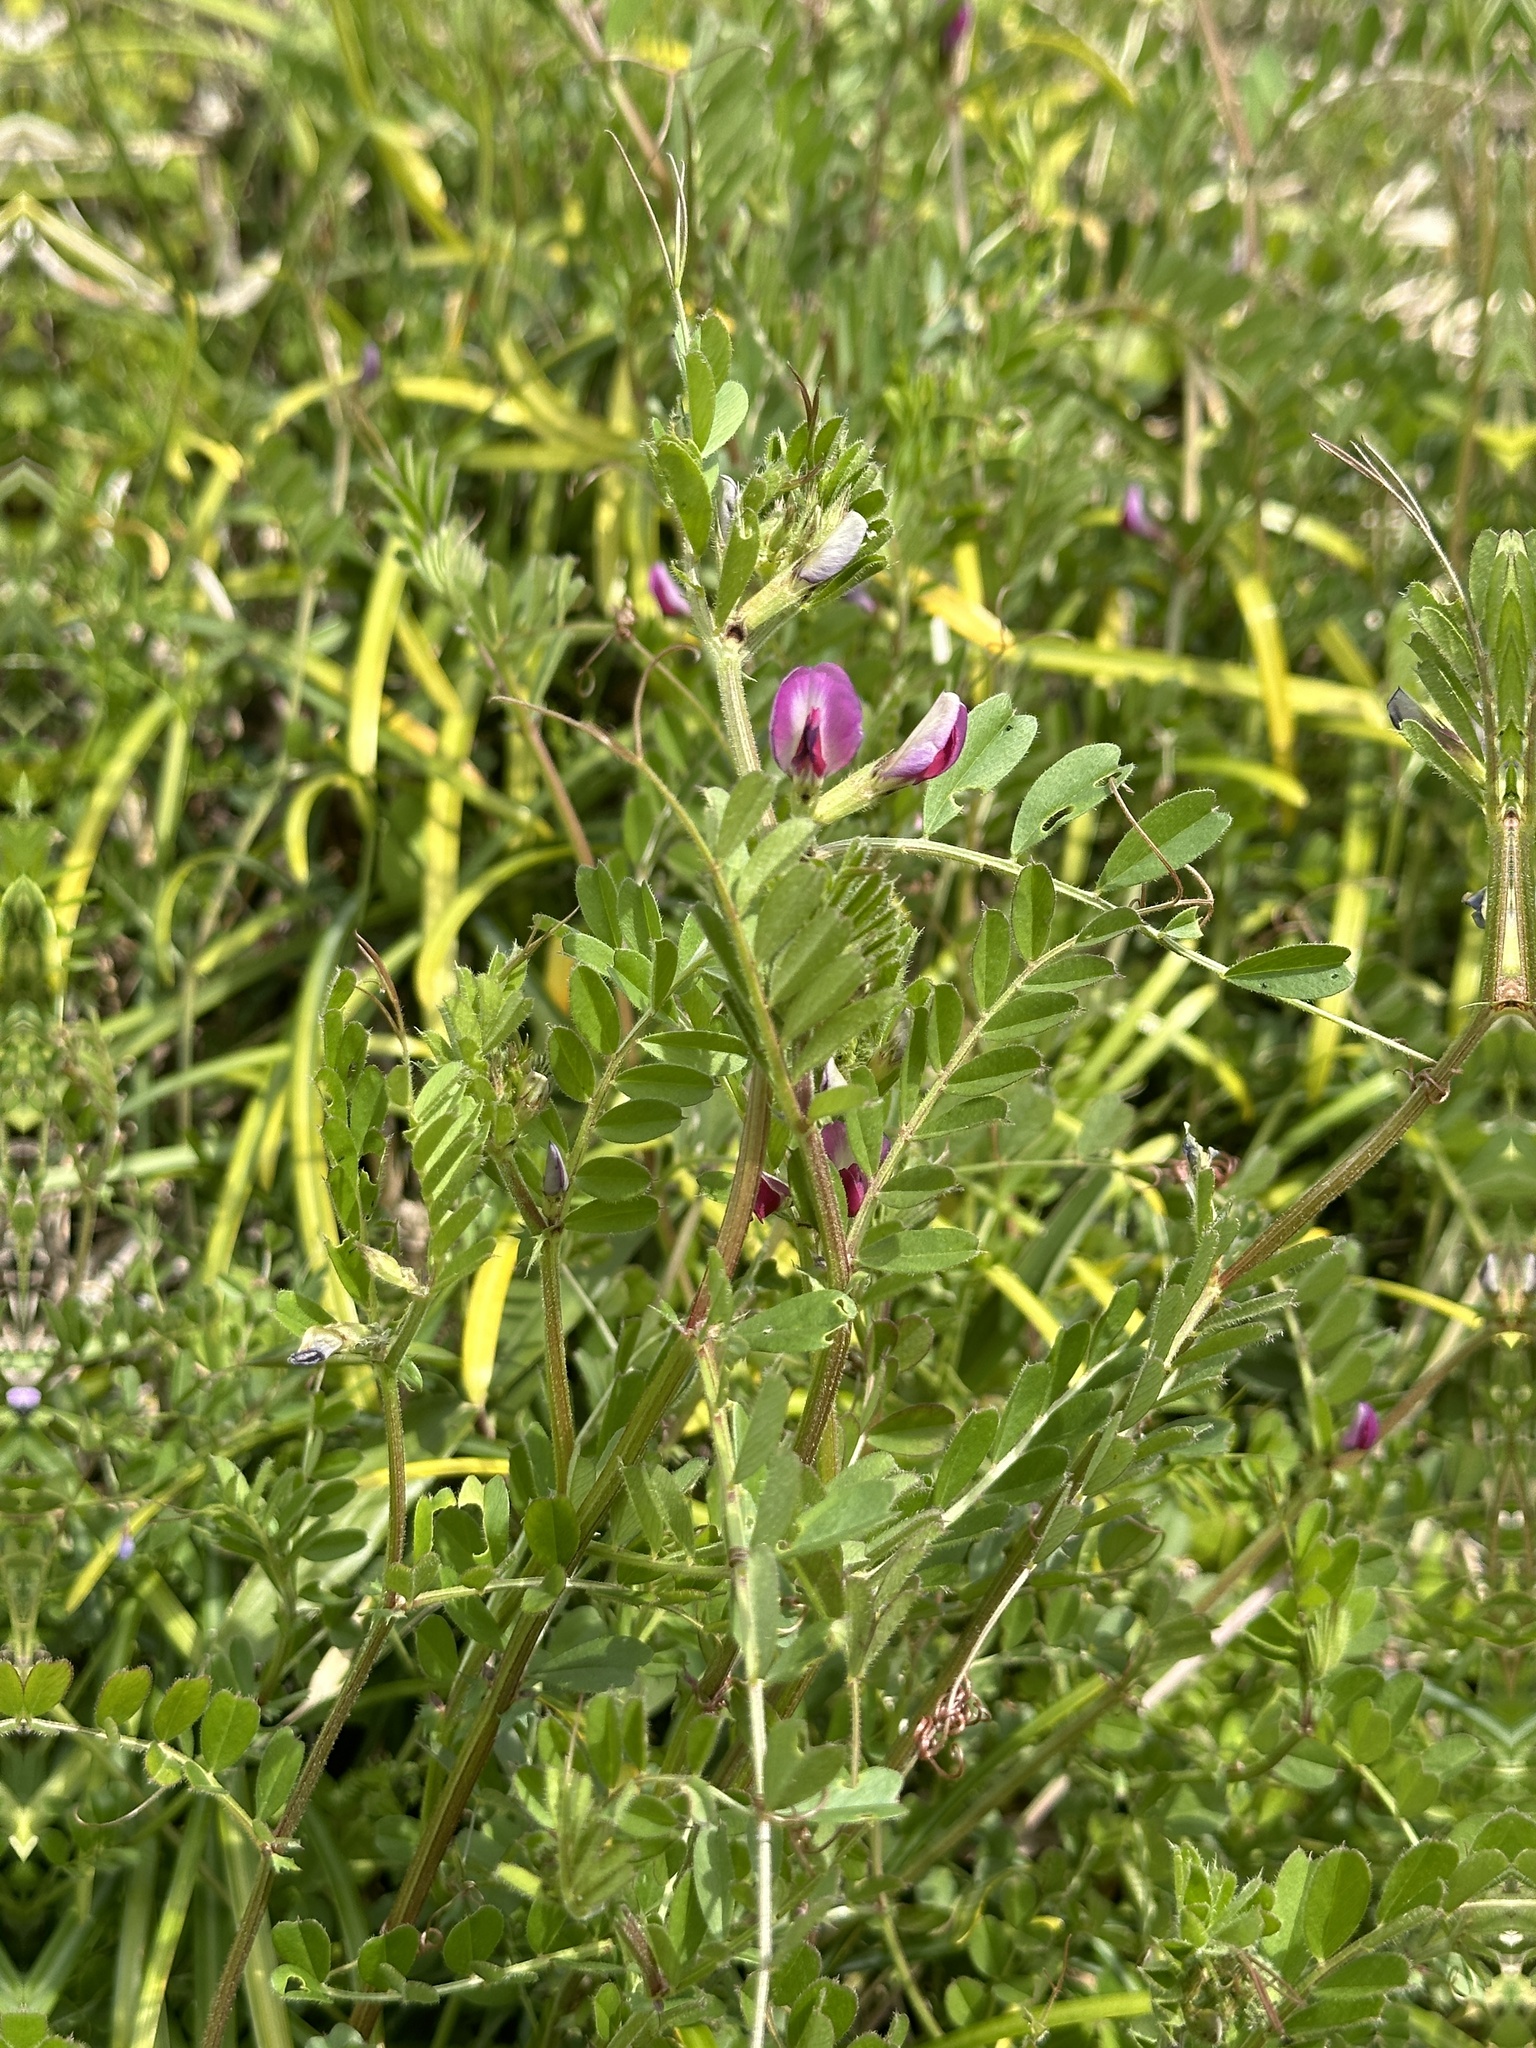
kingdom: Plantae
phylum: Tracheophyta
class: Magnoliopsida
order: Fabales
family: Fabaceae
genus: Vicia
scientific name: Vicia sativa
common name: Garden vetch
